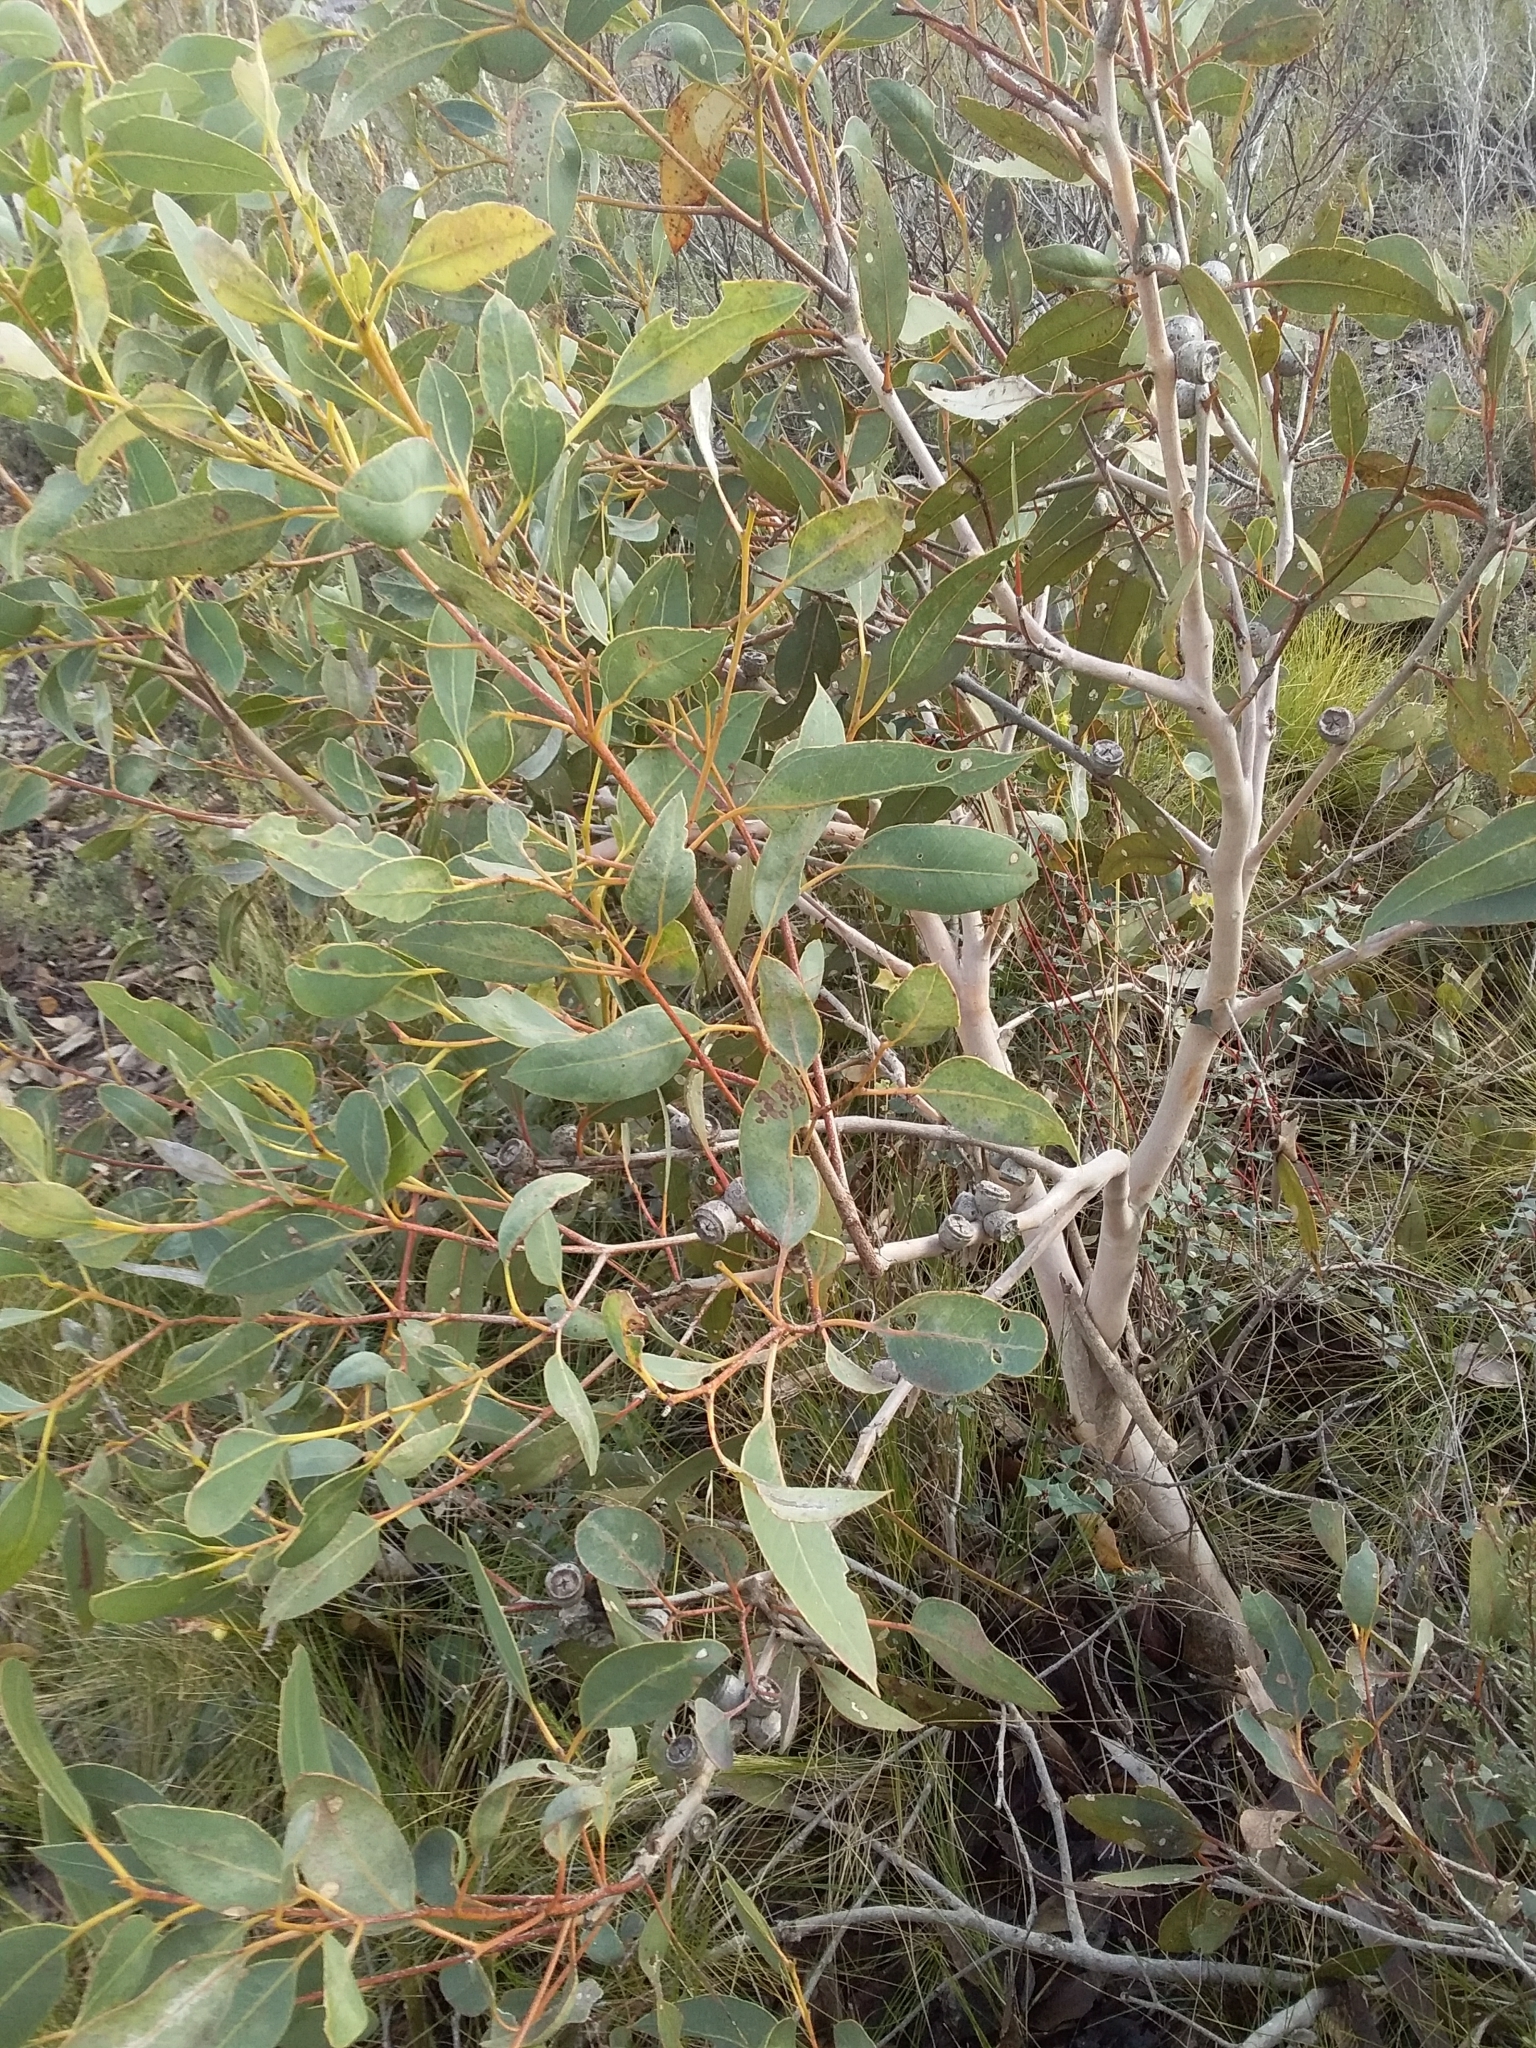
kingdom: Plantae
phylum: Tracheophyta
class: Magnoliopsida
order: Myrtales
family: Myrtaceae
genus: Eucalyptus
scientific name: Eucalyptus cosmophylla
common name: Bog-gum
